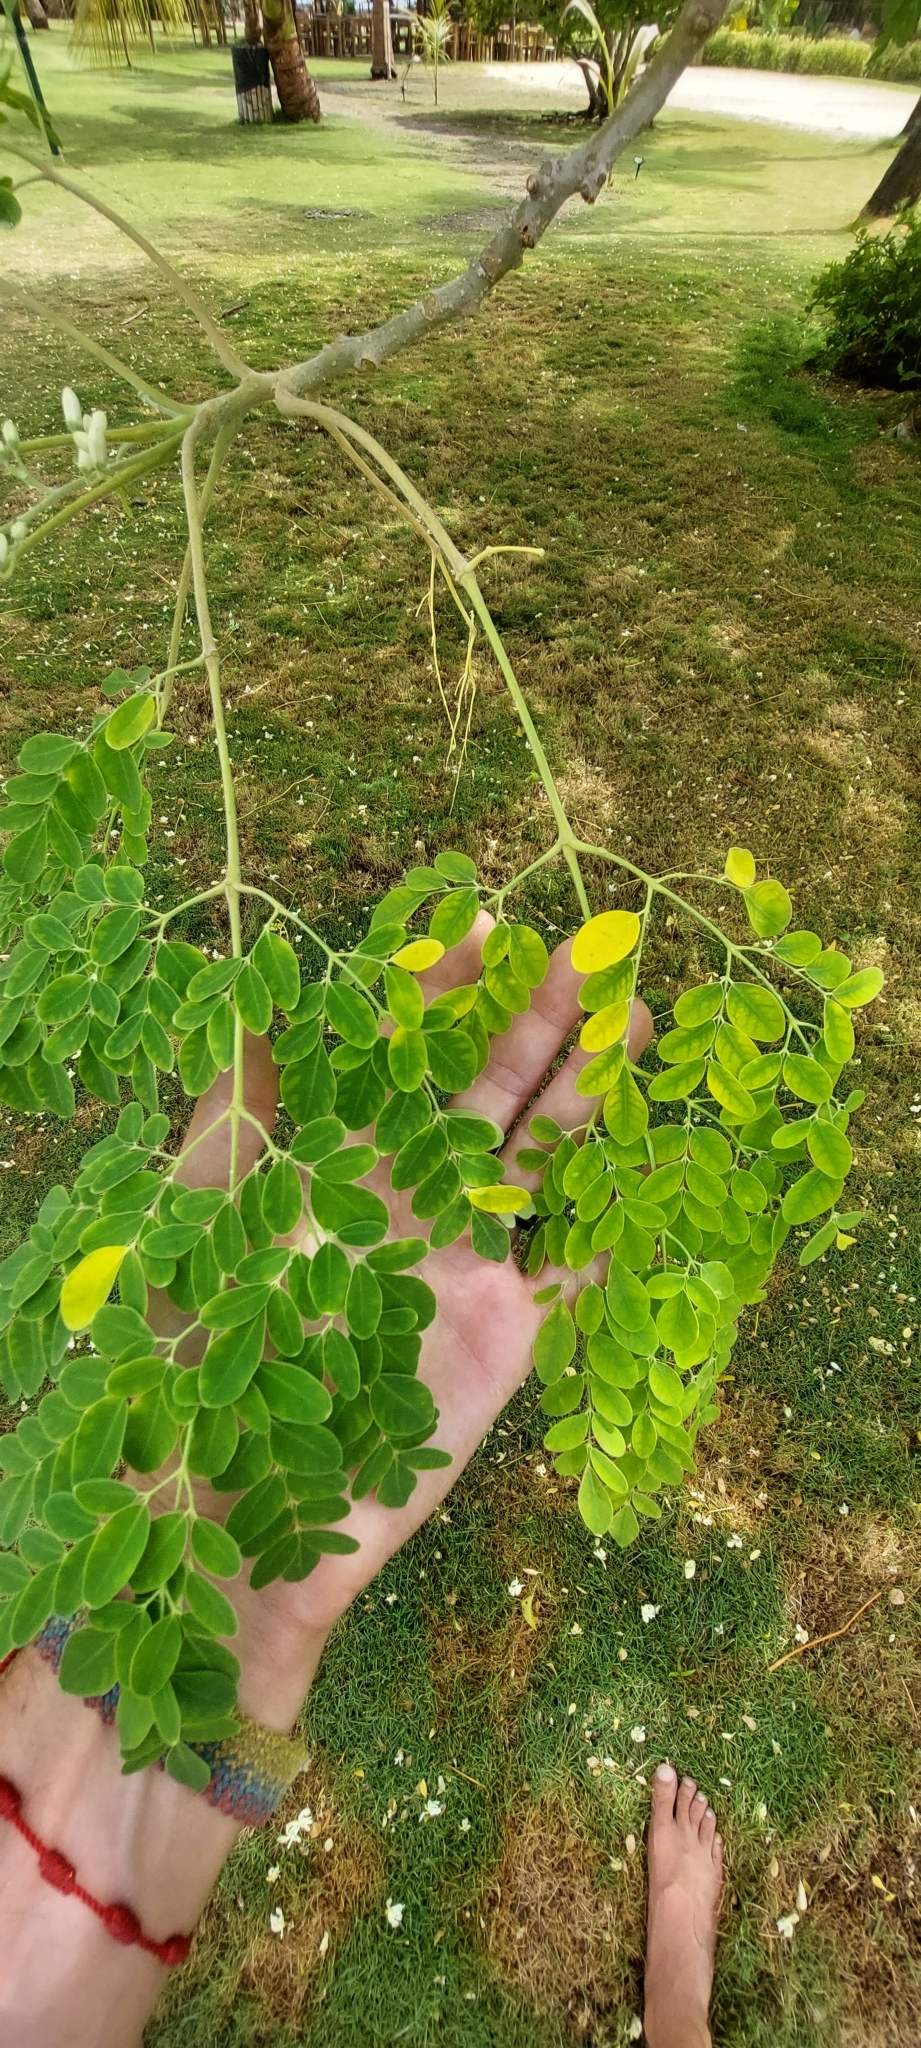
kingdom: Plantae
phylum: Tracheophyta
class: Magnoliopsida
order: Brassicales
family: Moringaceae
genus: Moringa
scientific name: Moringa oleifera
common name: Horseradish-tree
